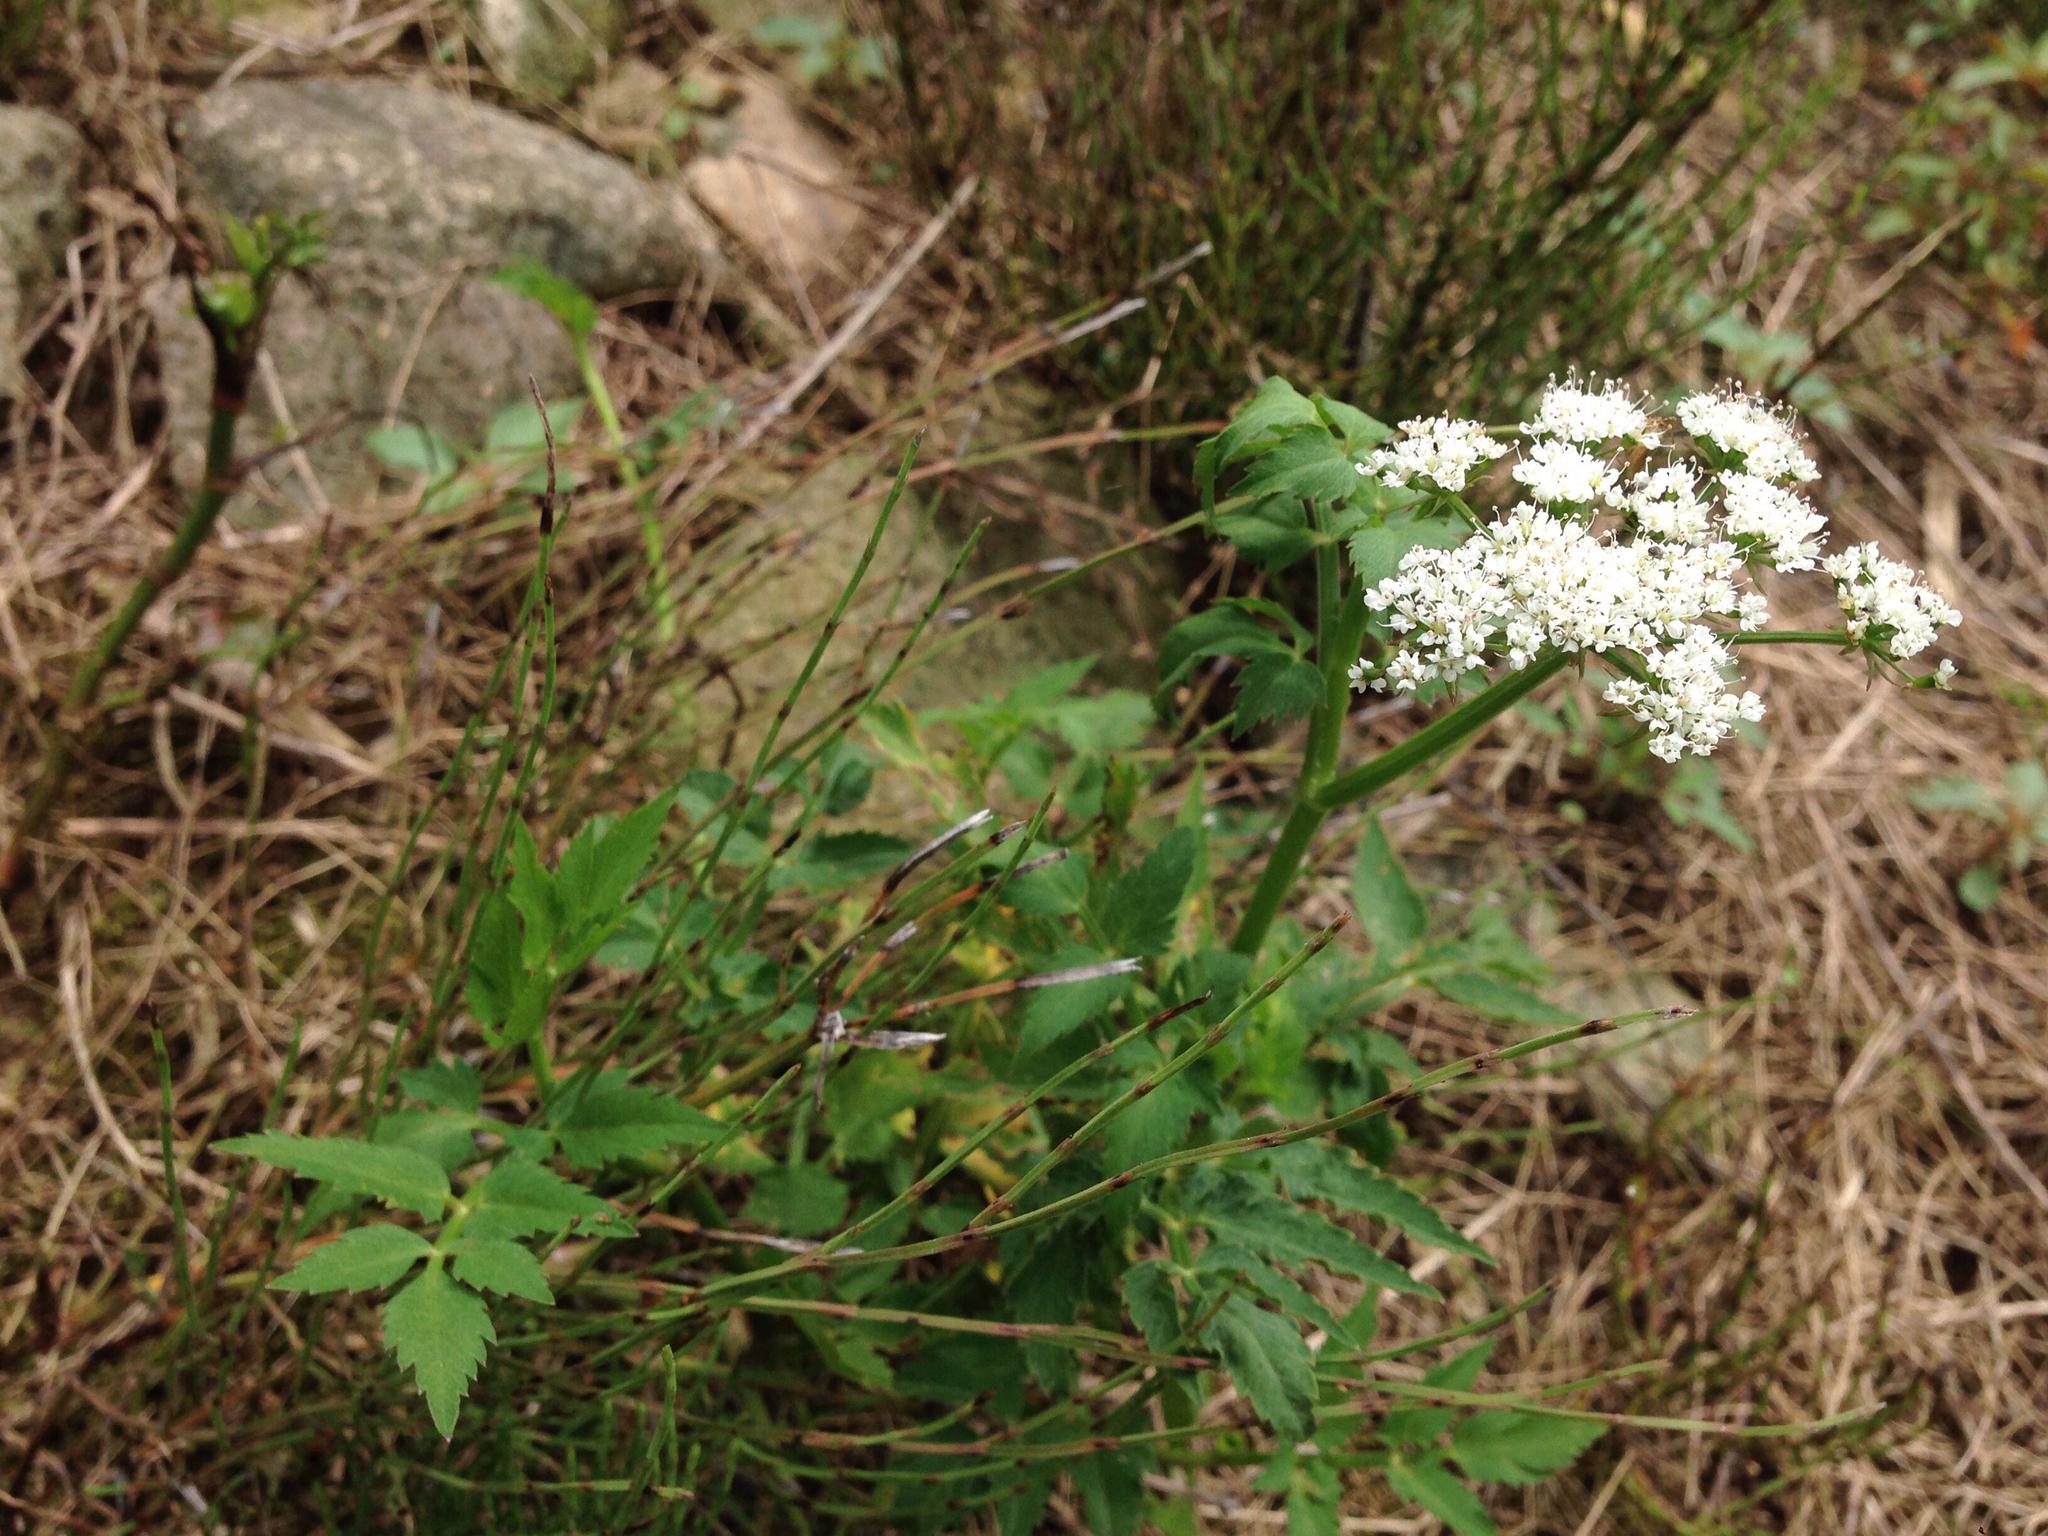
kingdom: Plantae
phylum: Tracheophyta
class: Magnoliopsida
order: Apiales
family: Apiaceae
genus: Oenanthe
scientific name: Oenanthe javanica
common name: Java water-dropwort
